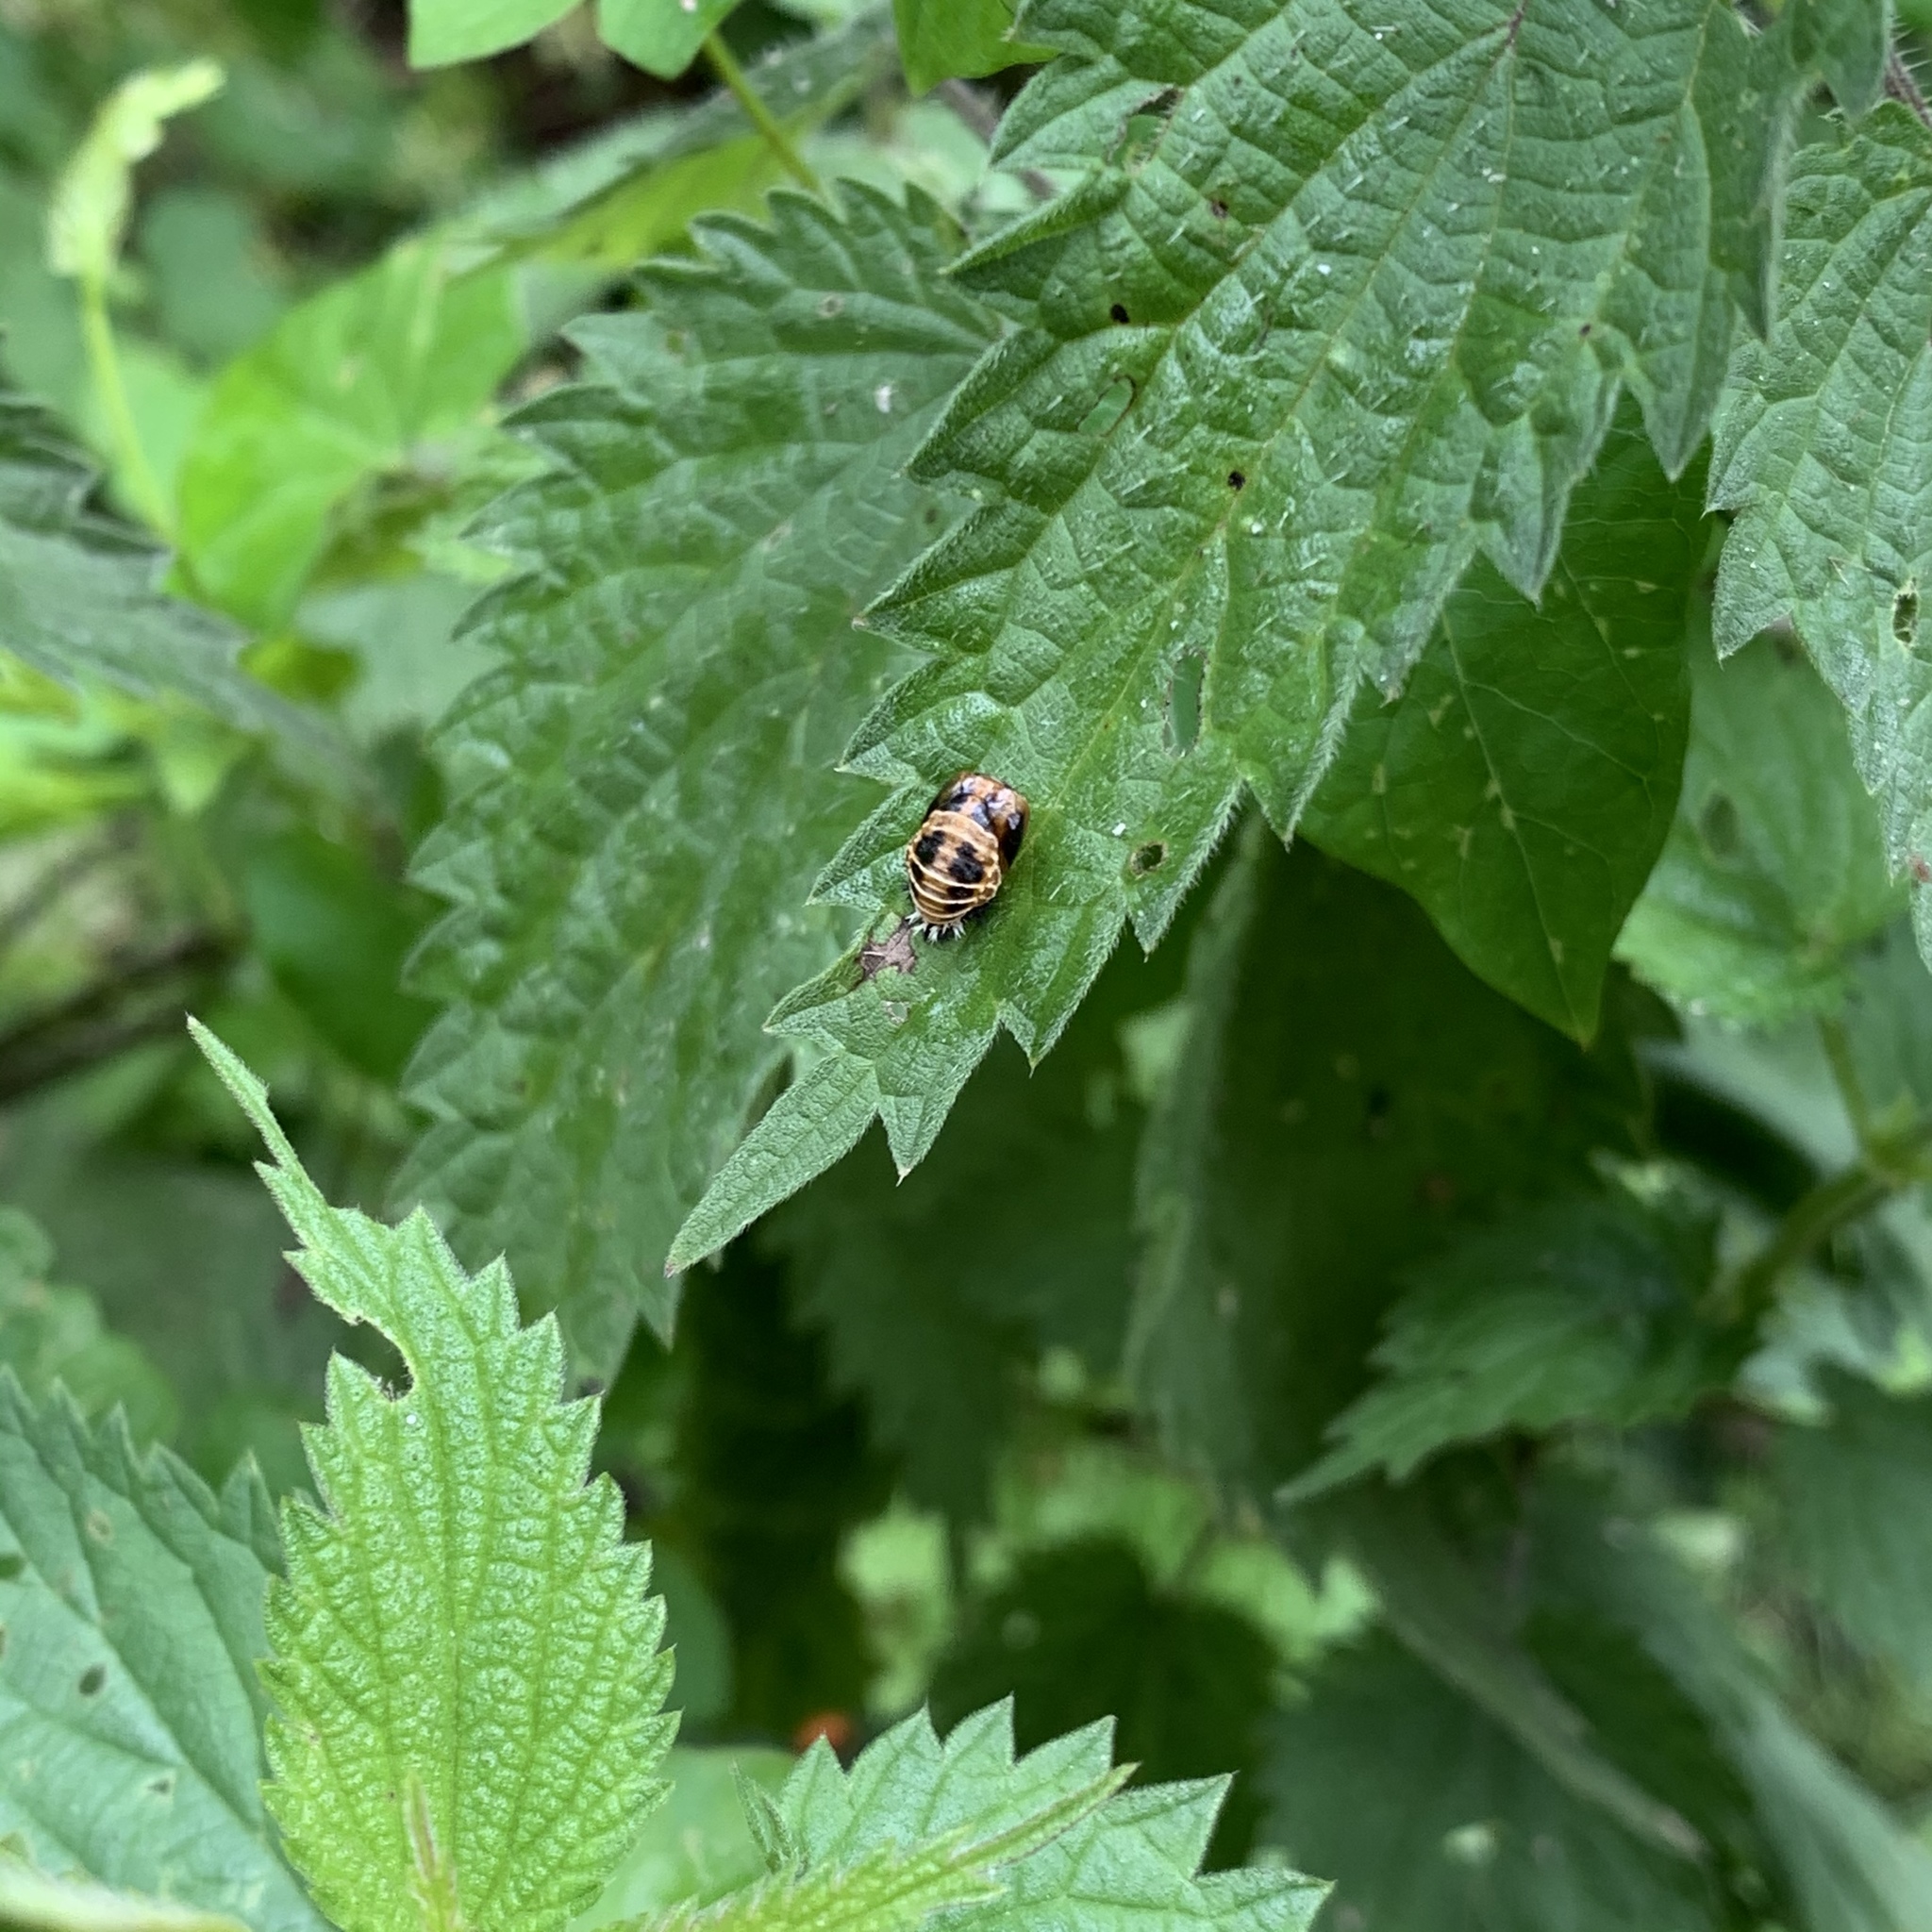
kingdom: Animalia
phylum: Arthropoda
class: Insecta
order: Coleoptera
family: Coccinellidae
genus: Harmonia
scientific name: Harmonia axyridis
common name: Harlequin ladybird
